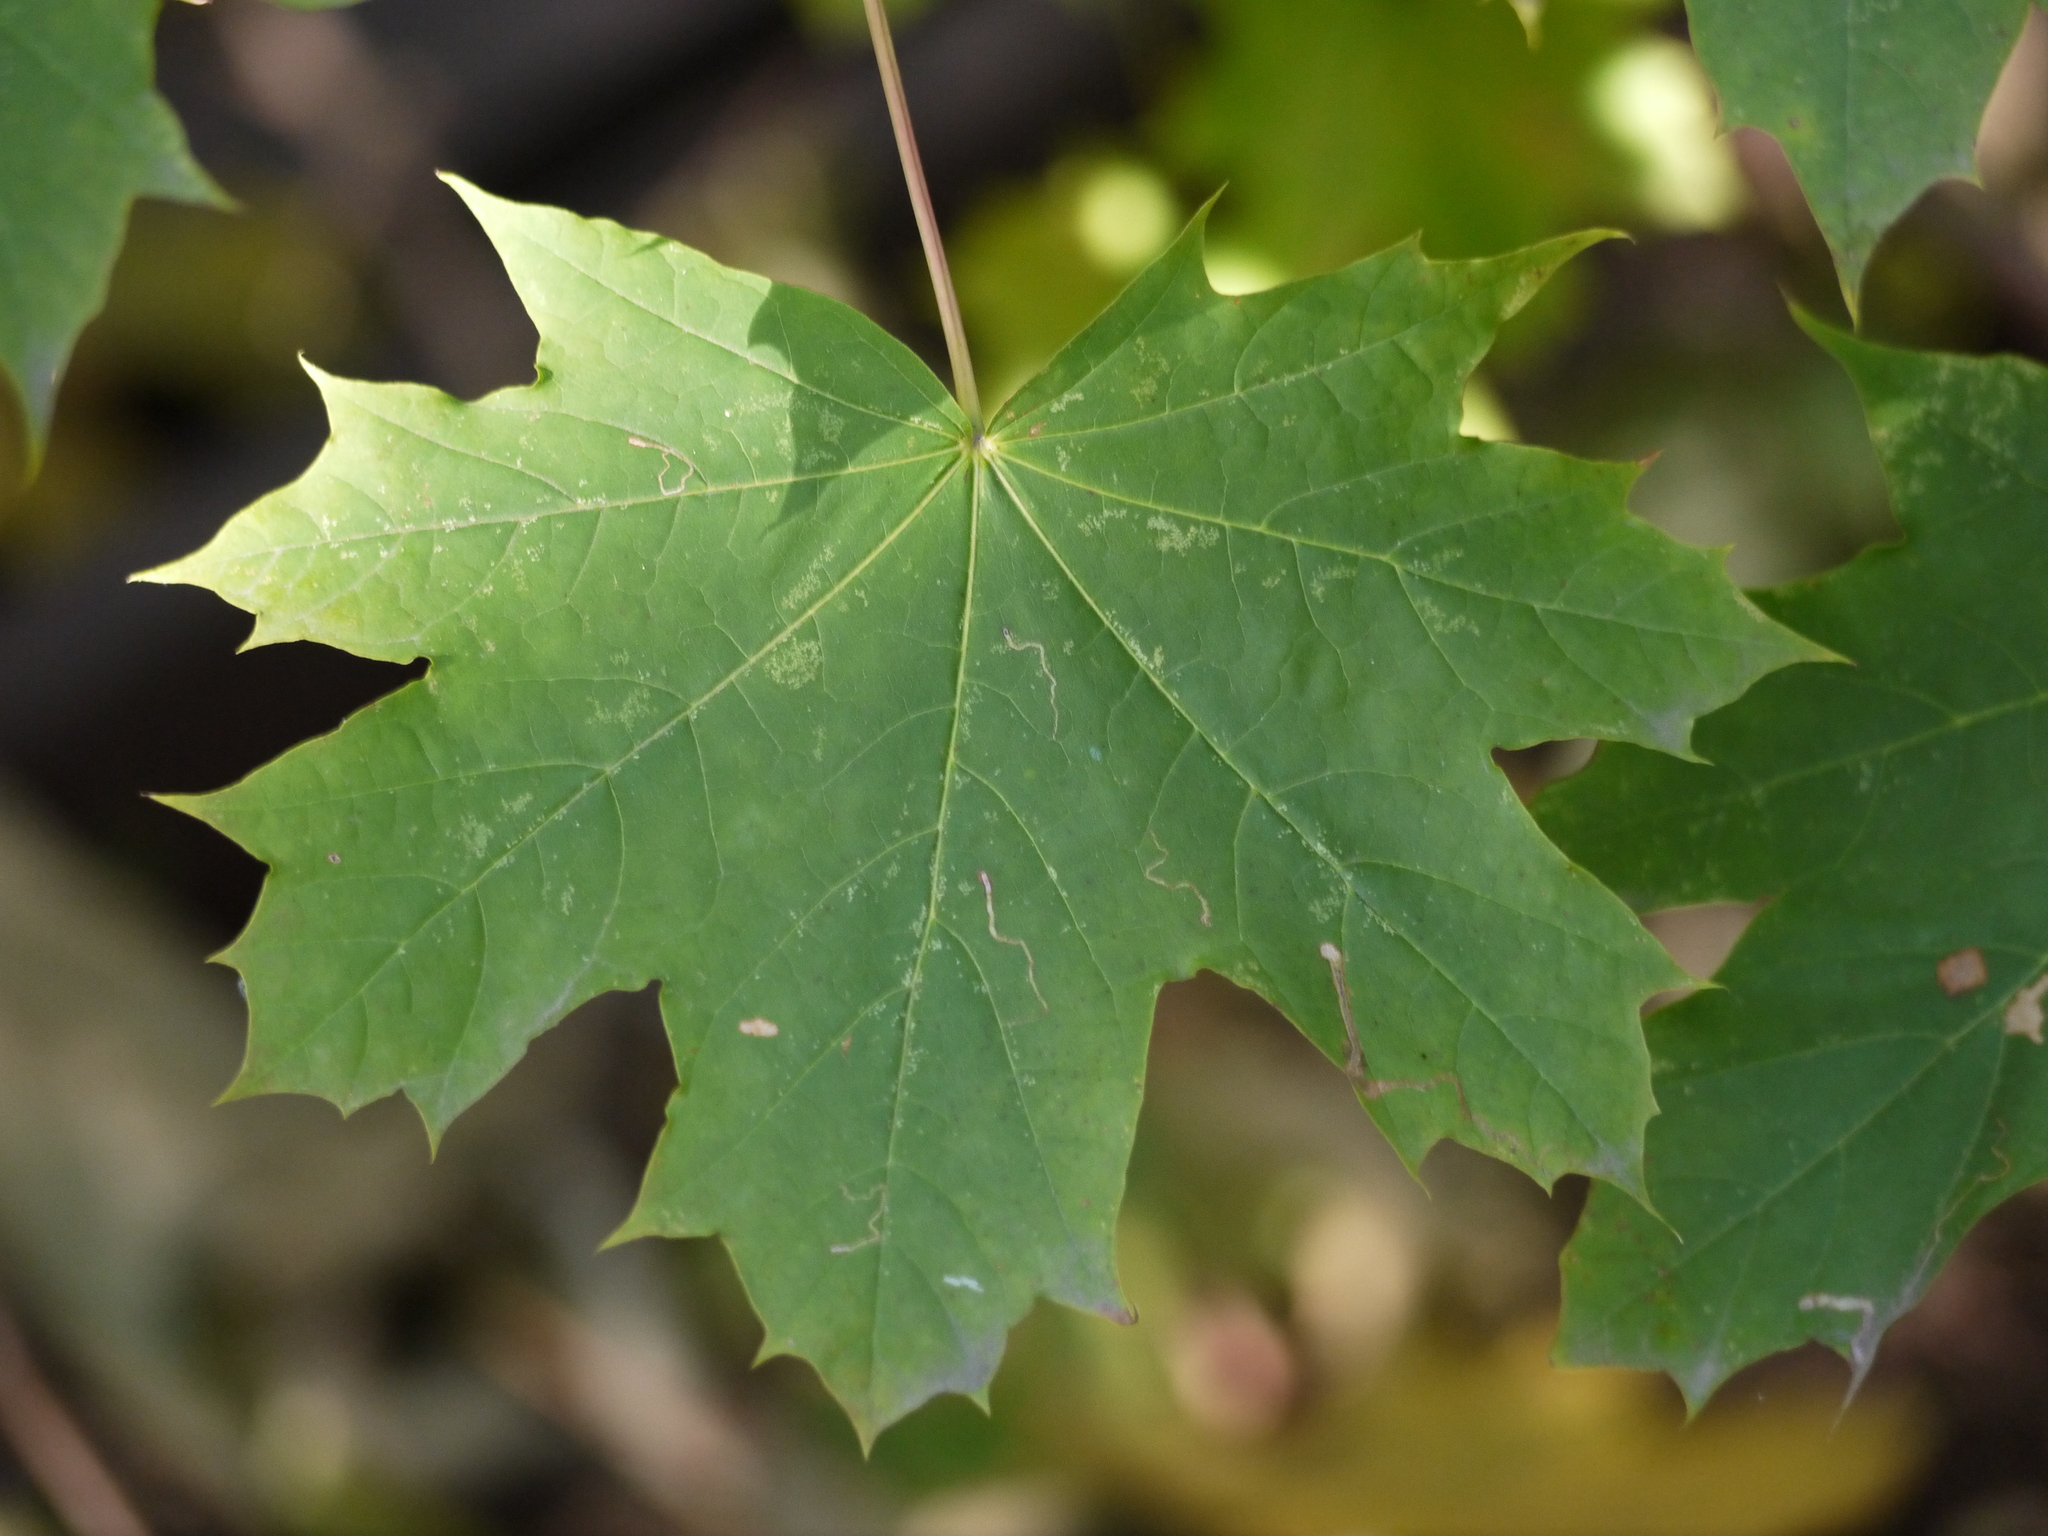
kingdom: Plantae
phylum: Tracheophyta
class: Magnoliopsida
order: Sapindales
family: Sapindaceae
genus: Acer
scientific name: Acer platanoides
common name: Norway maple
